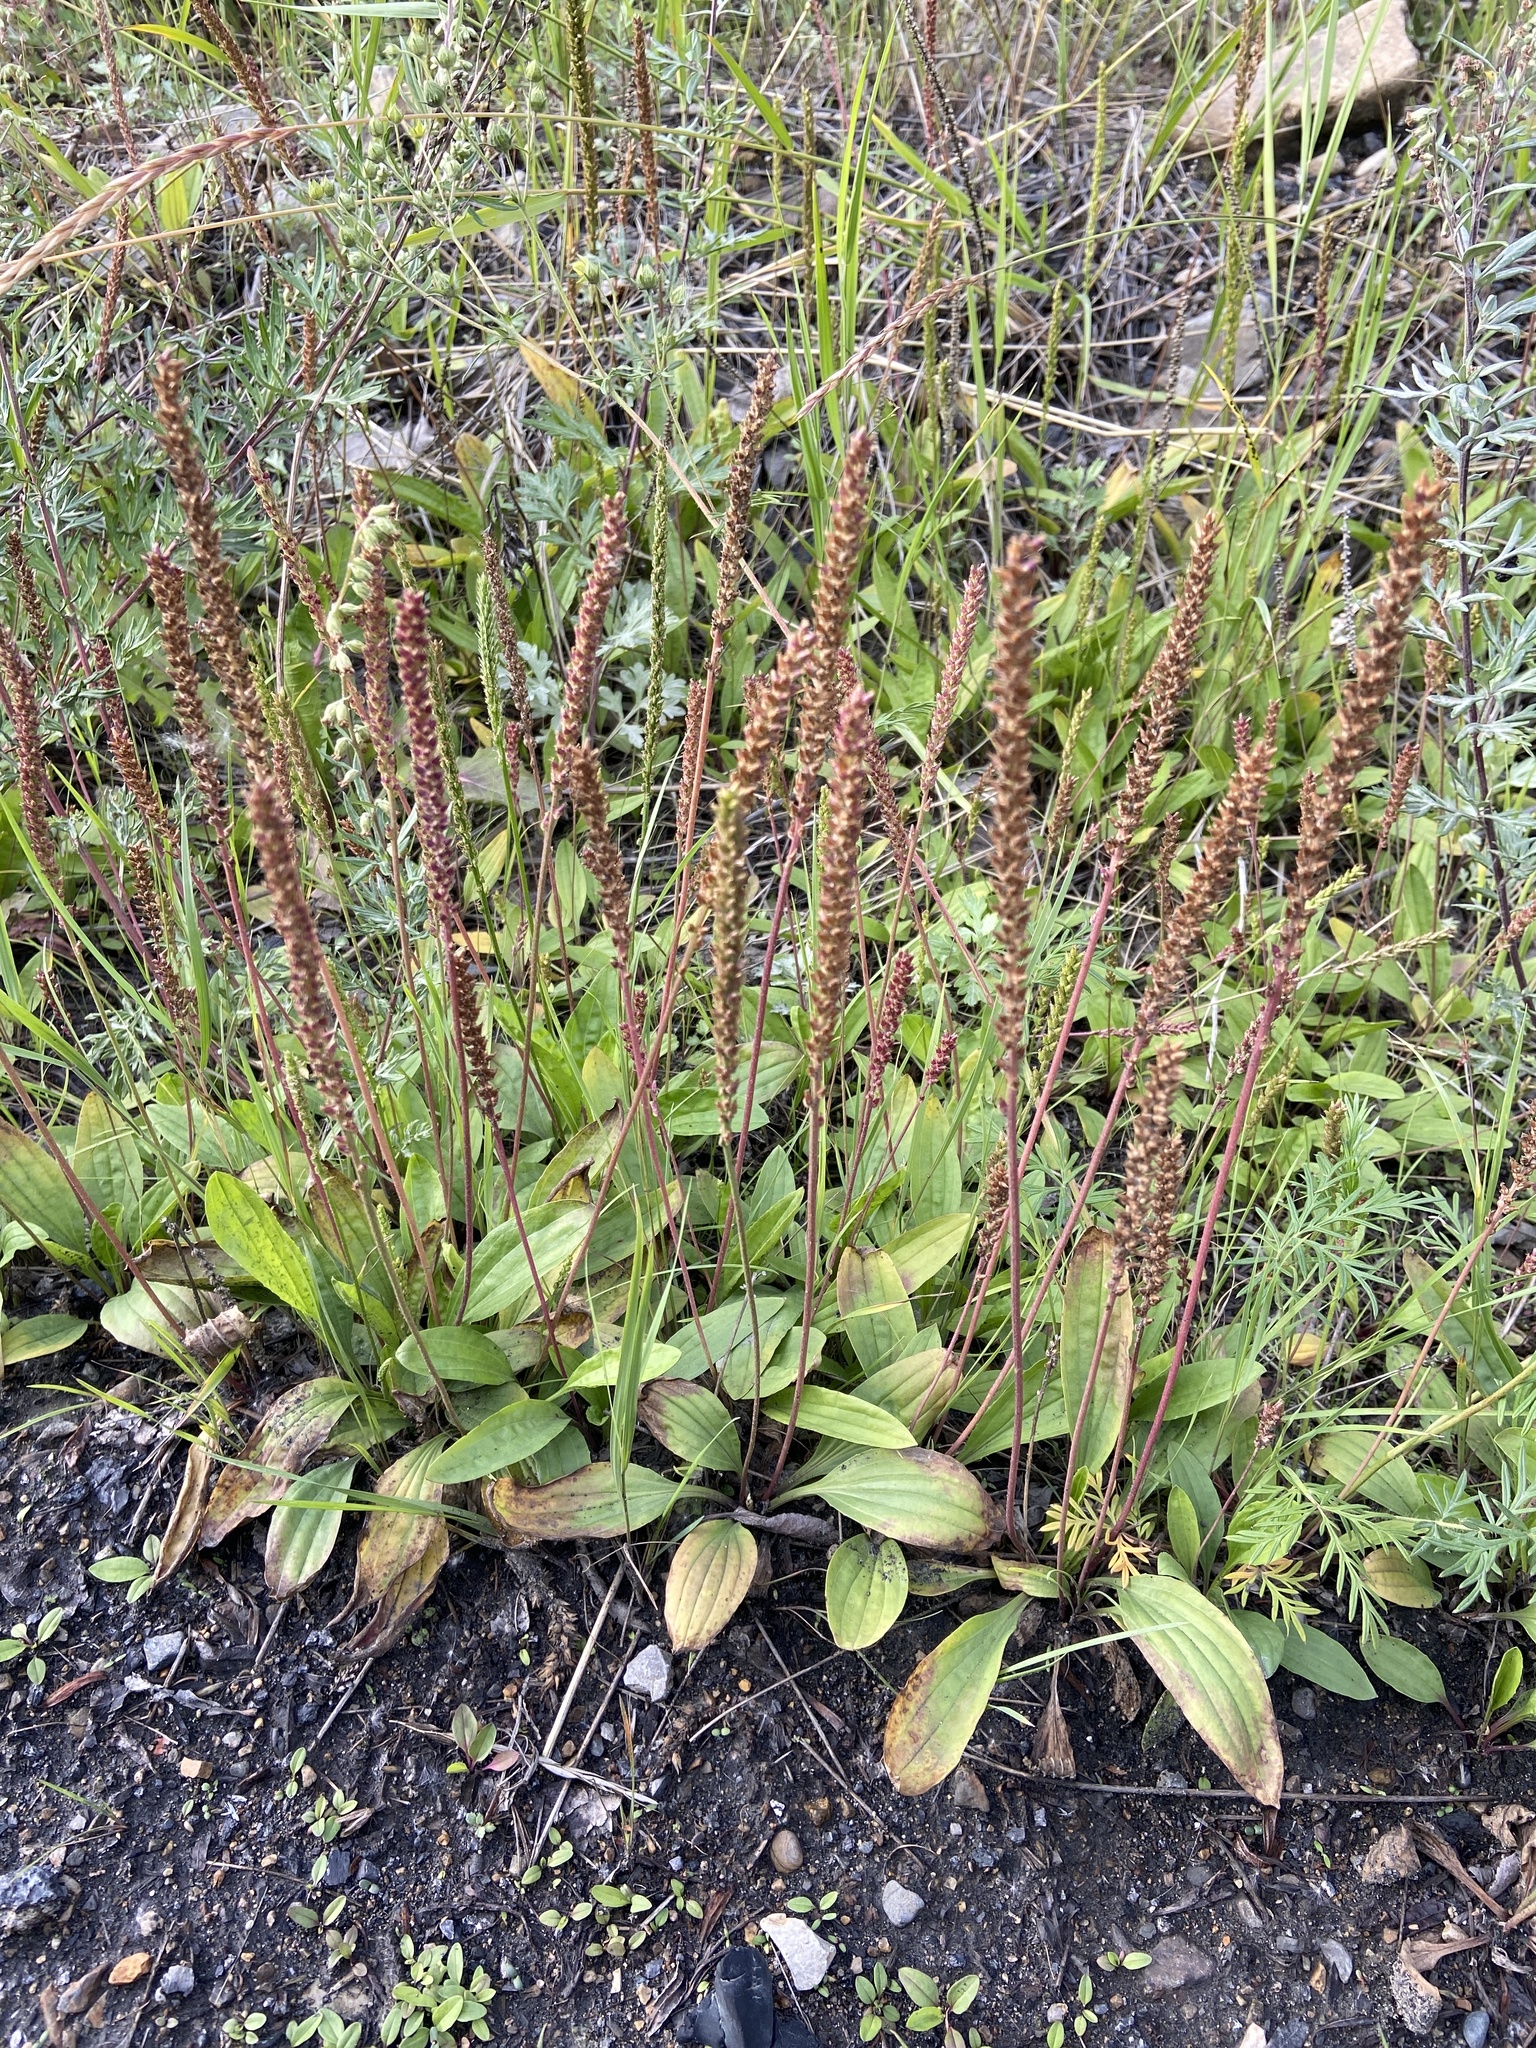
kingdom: Plantae
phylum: Tracheophyta
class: Magnoliopsida
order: Lamiales
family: Plantaginaceae
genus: Plantago
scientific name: Plantago depressa
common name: Depressed plantain
